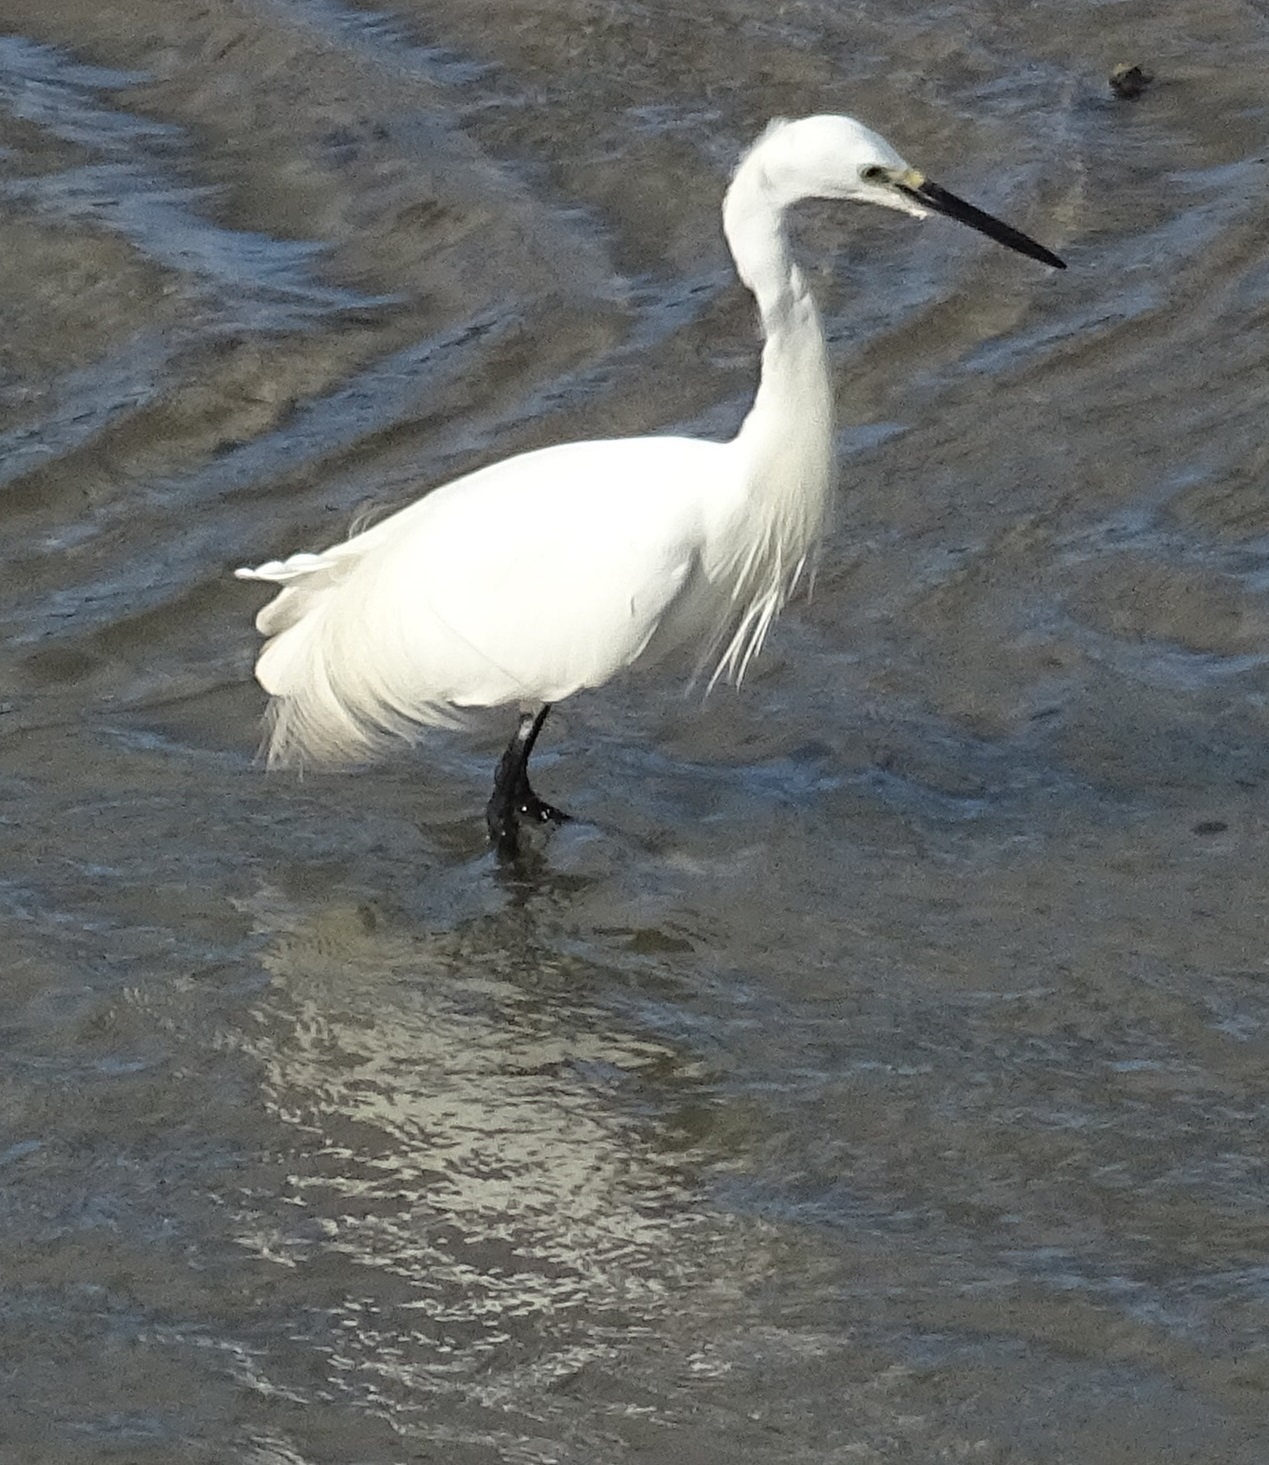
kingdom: Animalia
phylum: Chordata
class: Aves
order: Pelecaniformes
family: Ardeidae
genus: Egretta
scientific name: Egretta garzetta
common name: Little egret
